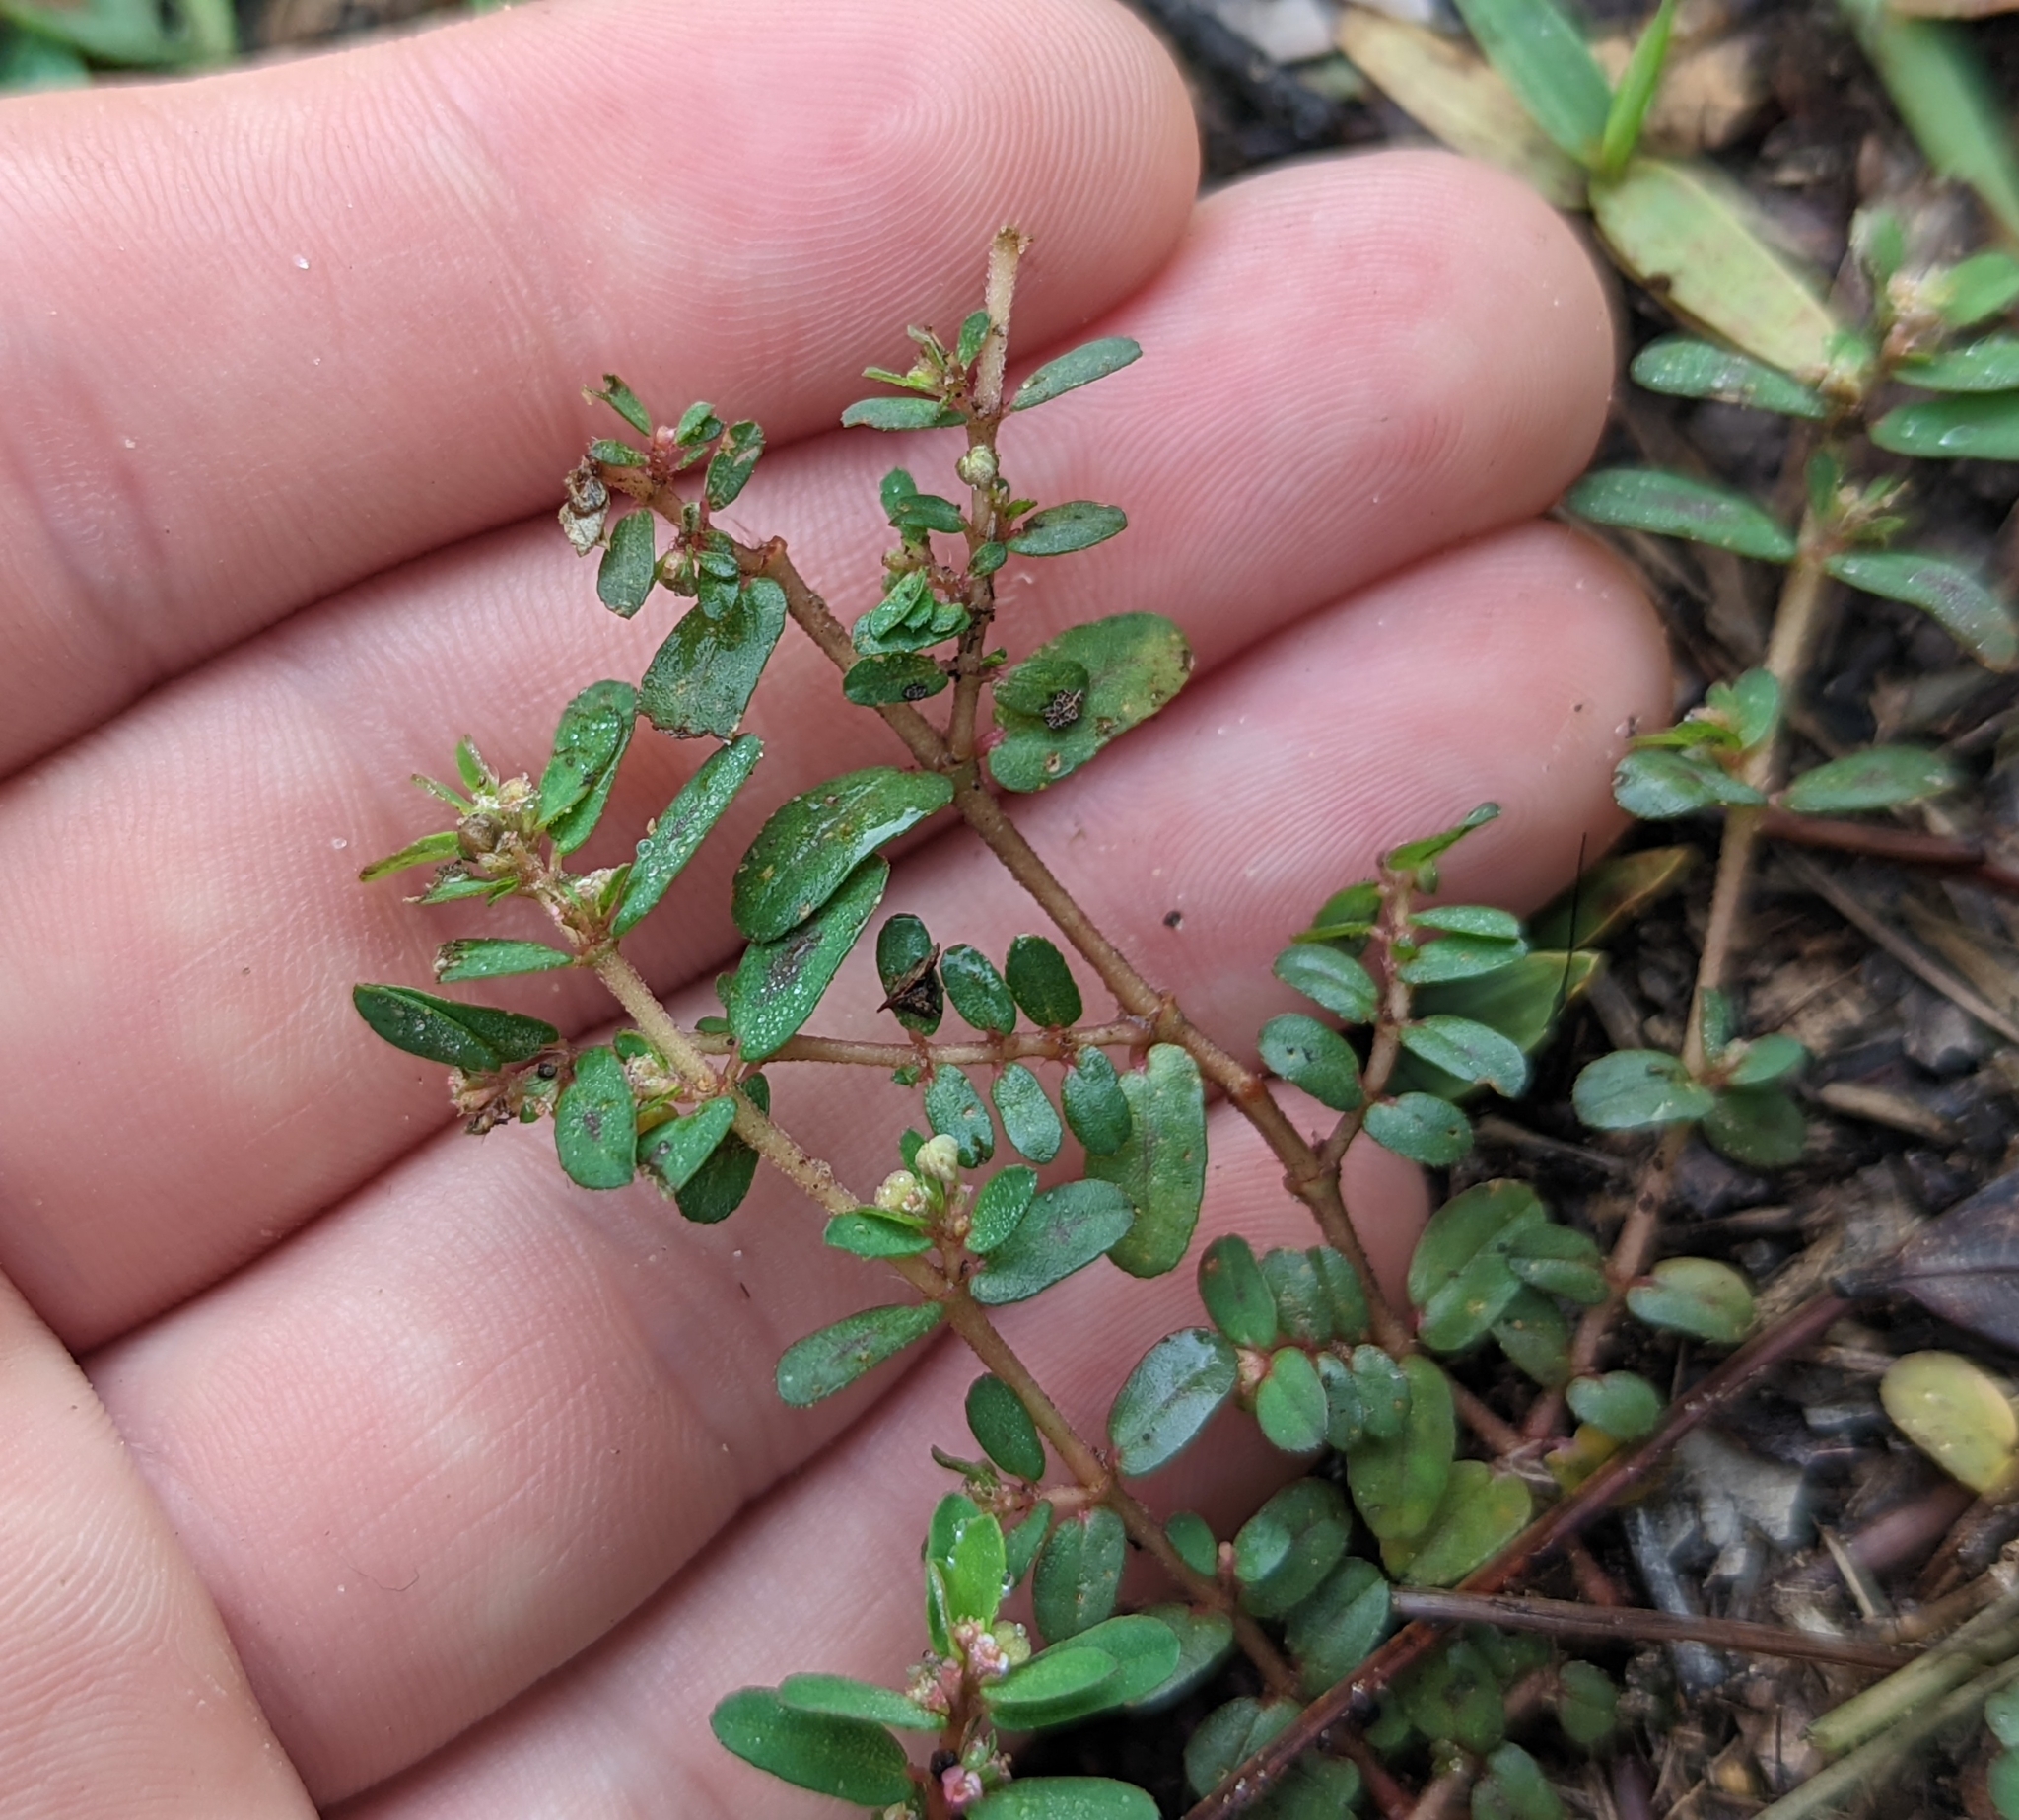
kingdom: Plantae
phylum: Tracheophyta
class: Magnoliopsida
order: Malpighiales
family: Euphorbiaceae
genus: Euphorbia
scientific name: Euphorbia maculata
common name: Spotted spurge
